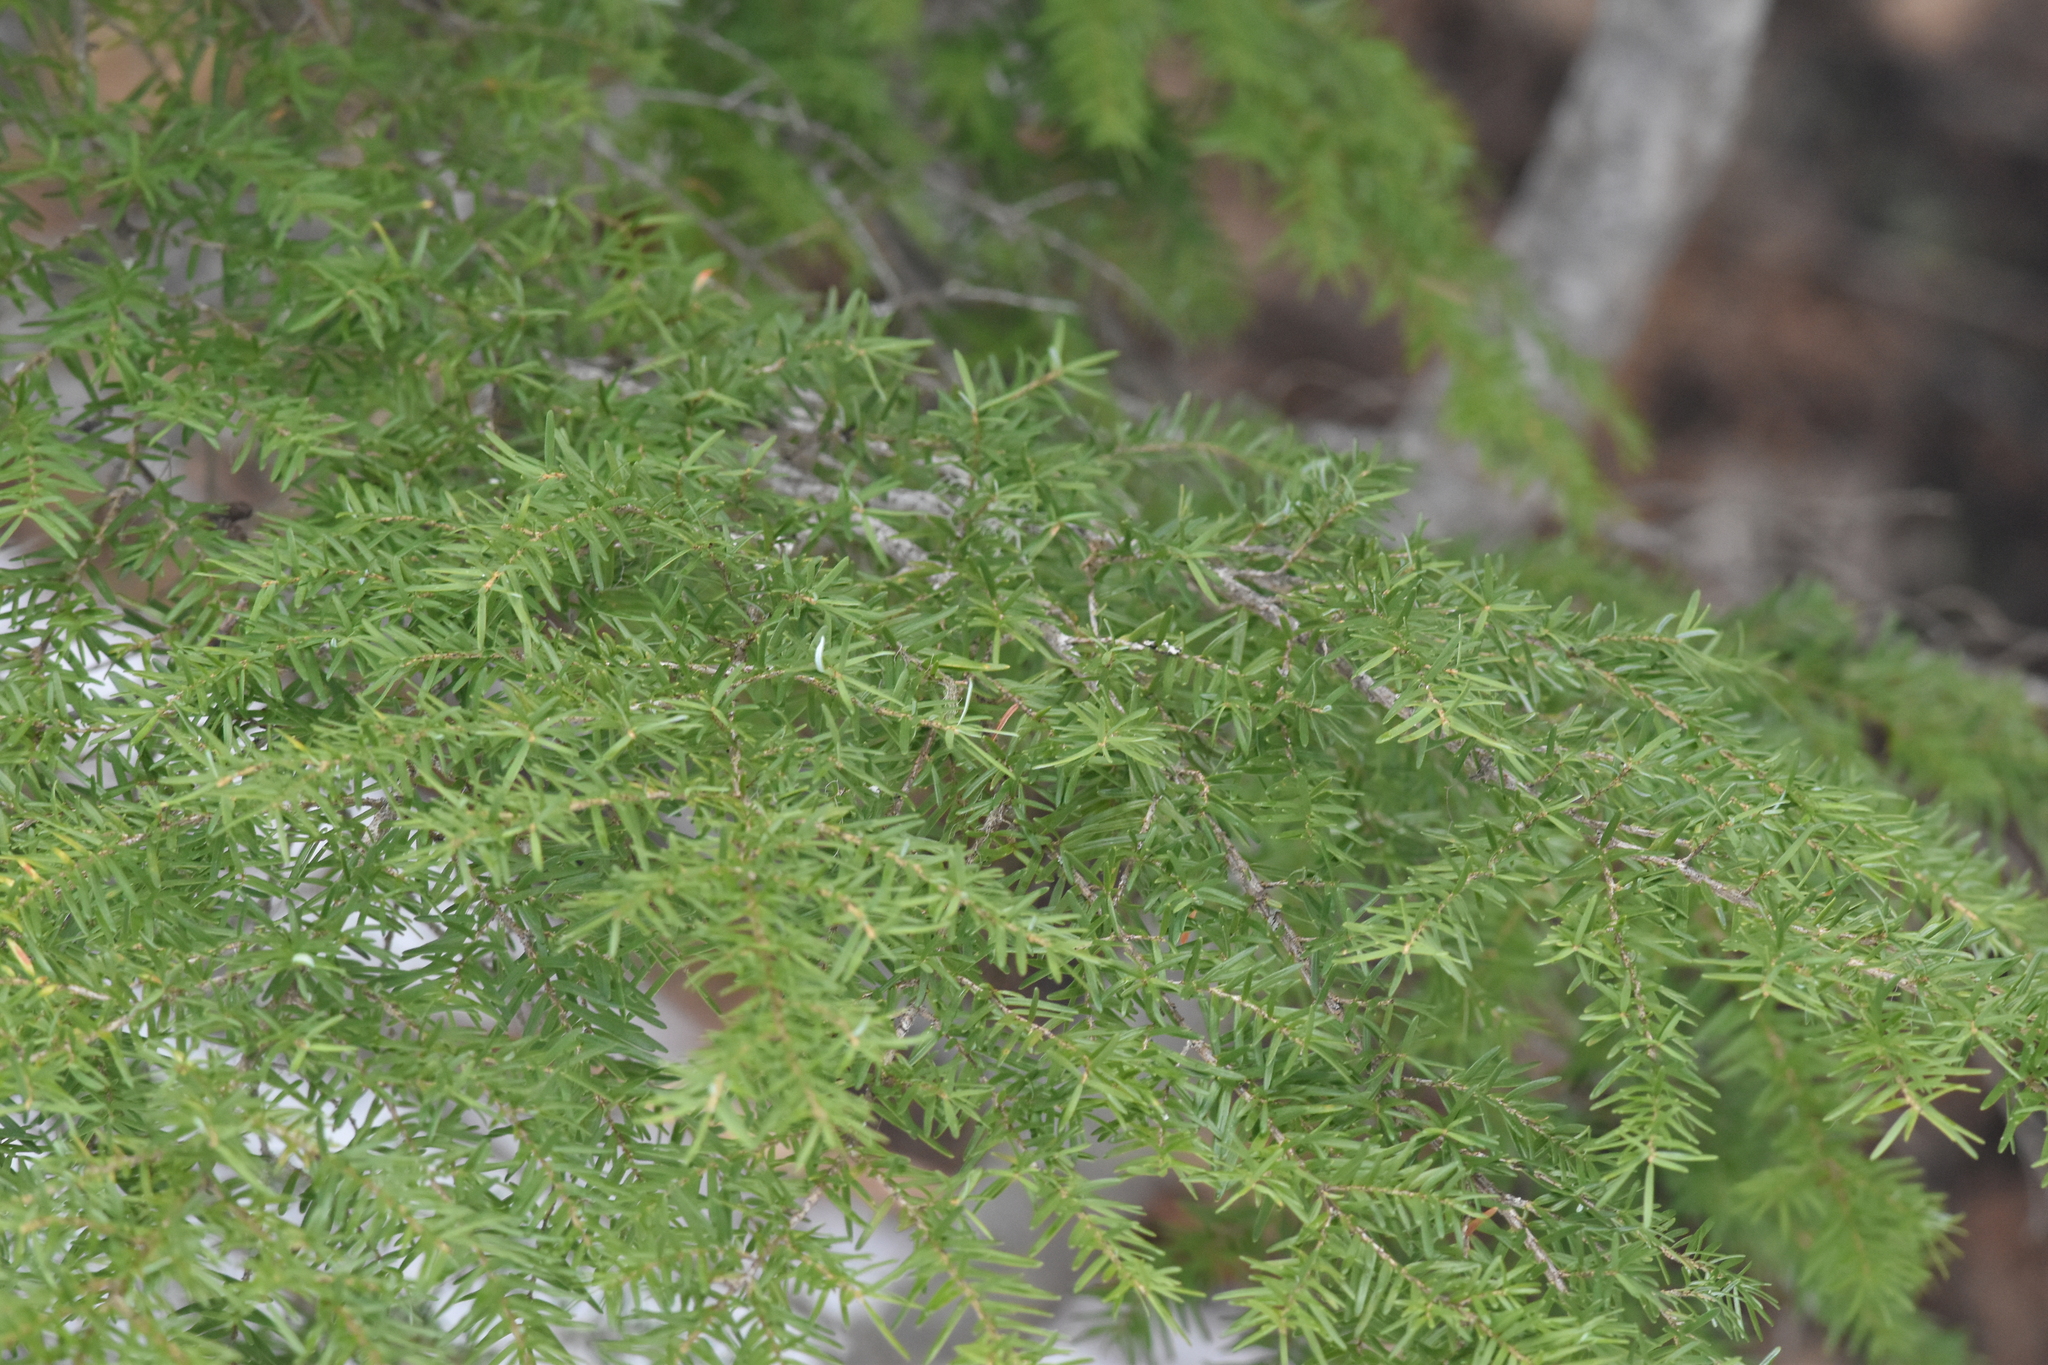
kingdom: Plantae
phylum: Tracheophyta
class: Pinopsida
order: Pinales
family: Pinaceae
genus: Tsuga
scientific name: Tsuga heterophylla
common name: Western hemlock
